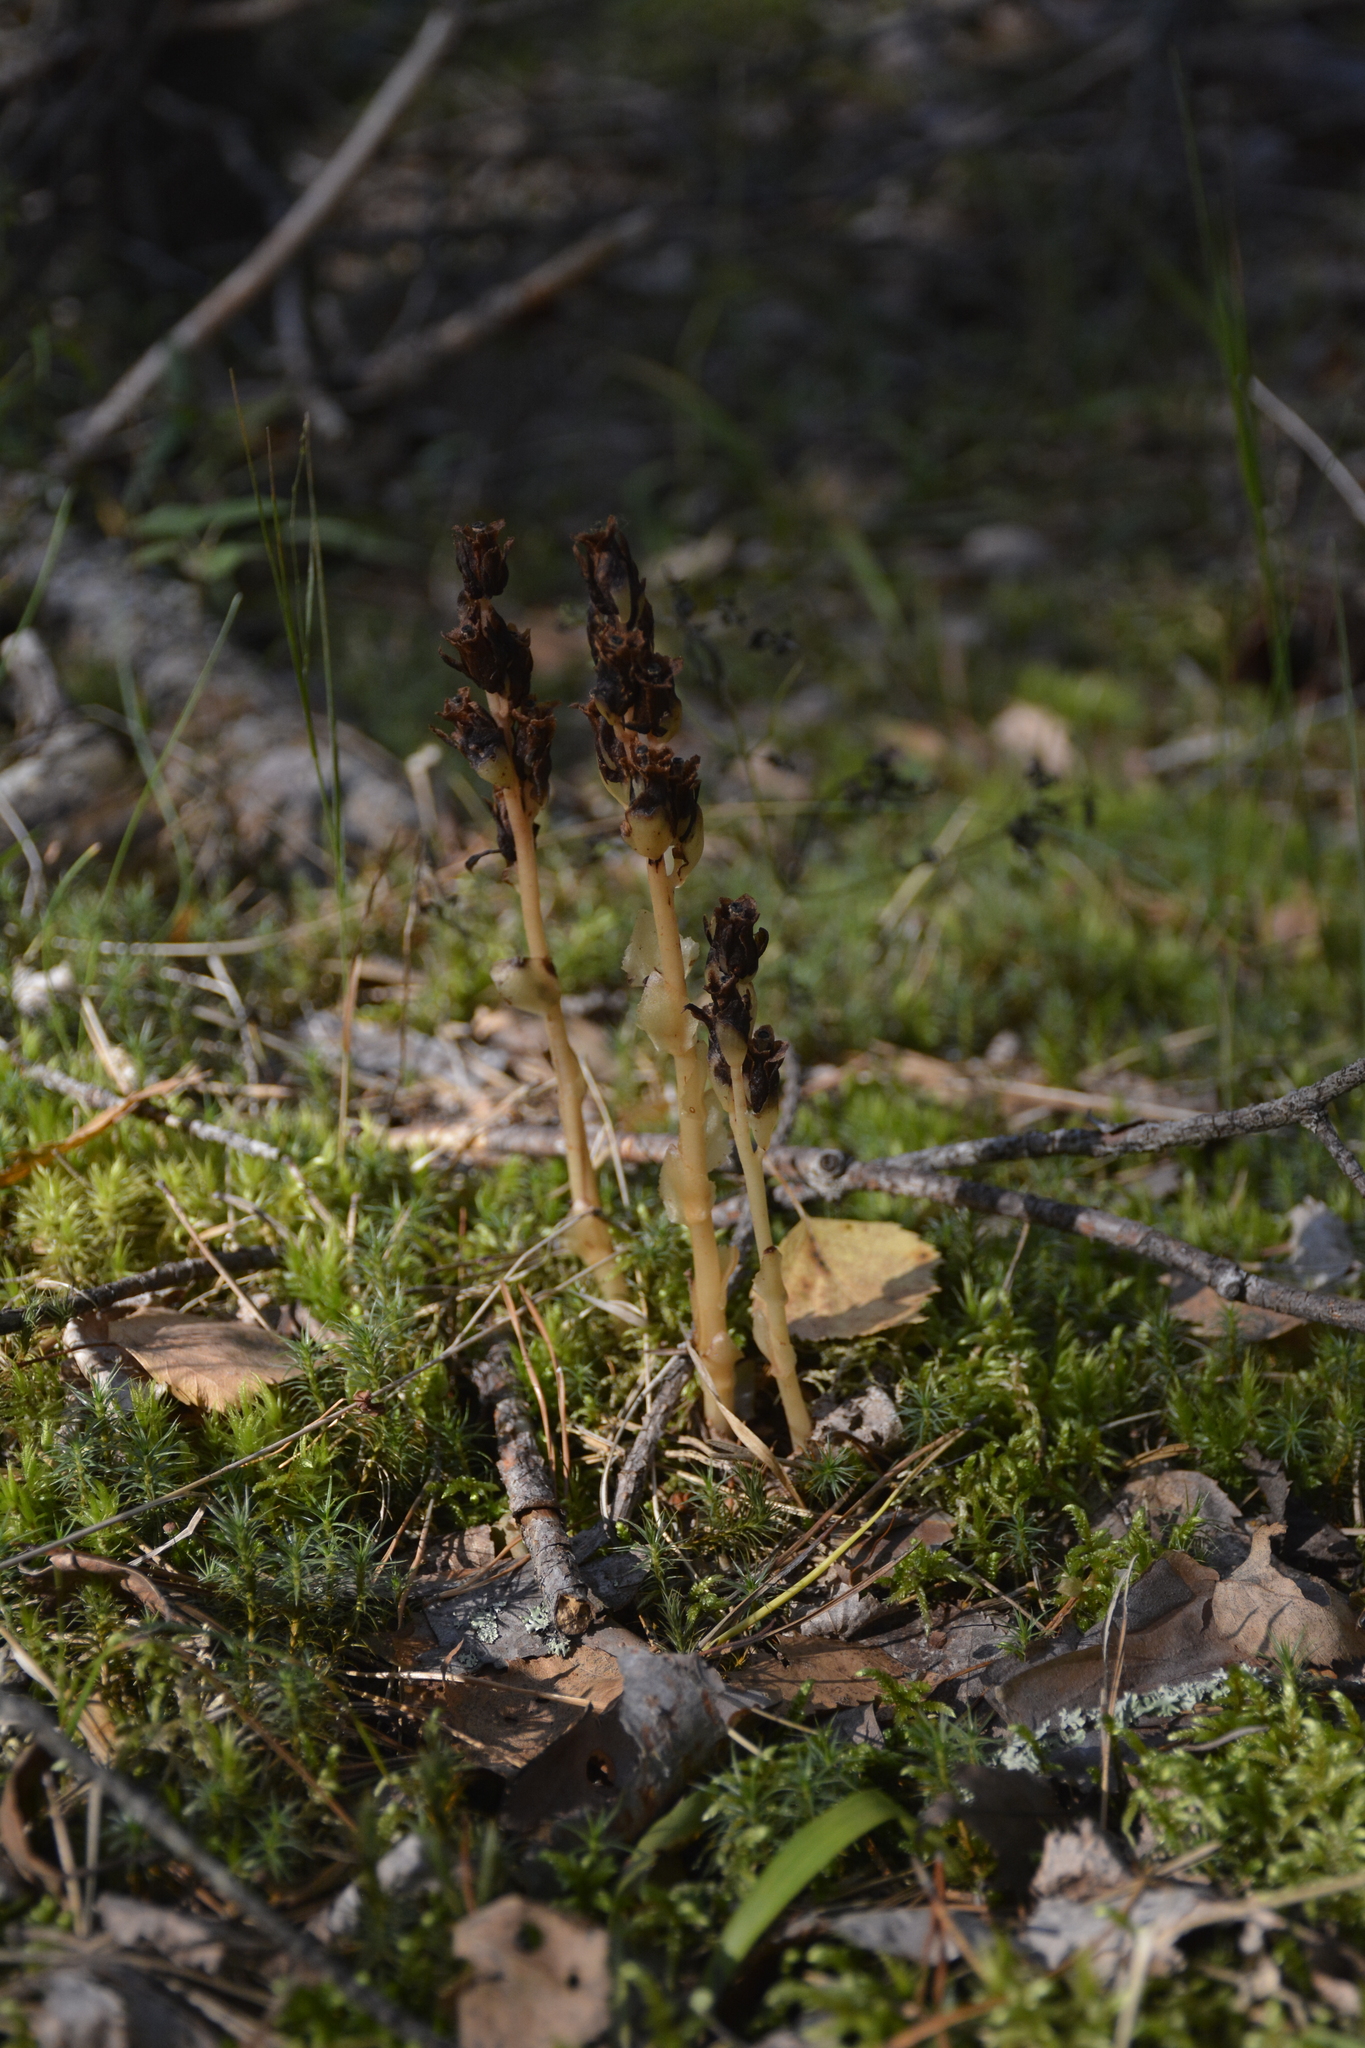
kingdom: Plantae
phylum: Tracheophyta
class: Magnoliopsida
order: Ericales
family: Ericaceae
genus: Hypopitys
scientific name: Hypopitys monotropa
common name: Yellow bird's-nest
